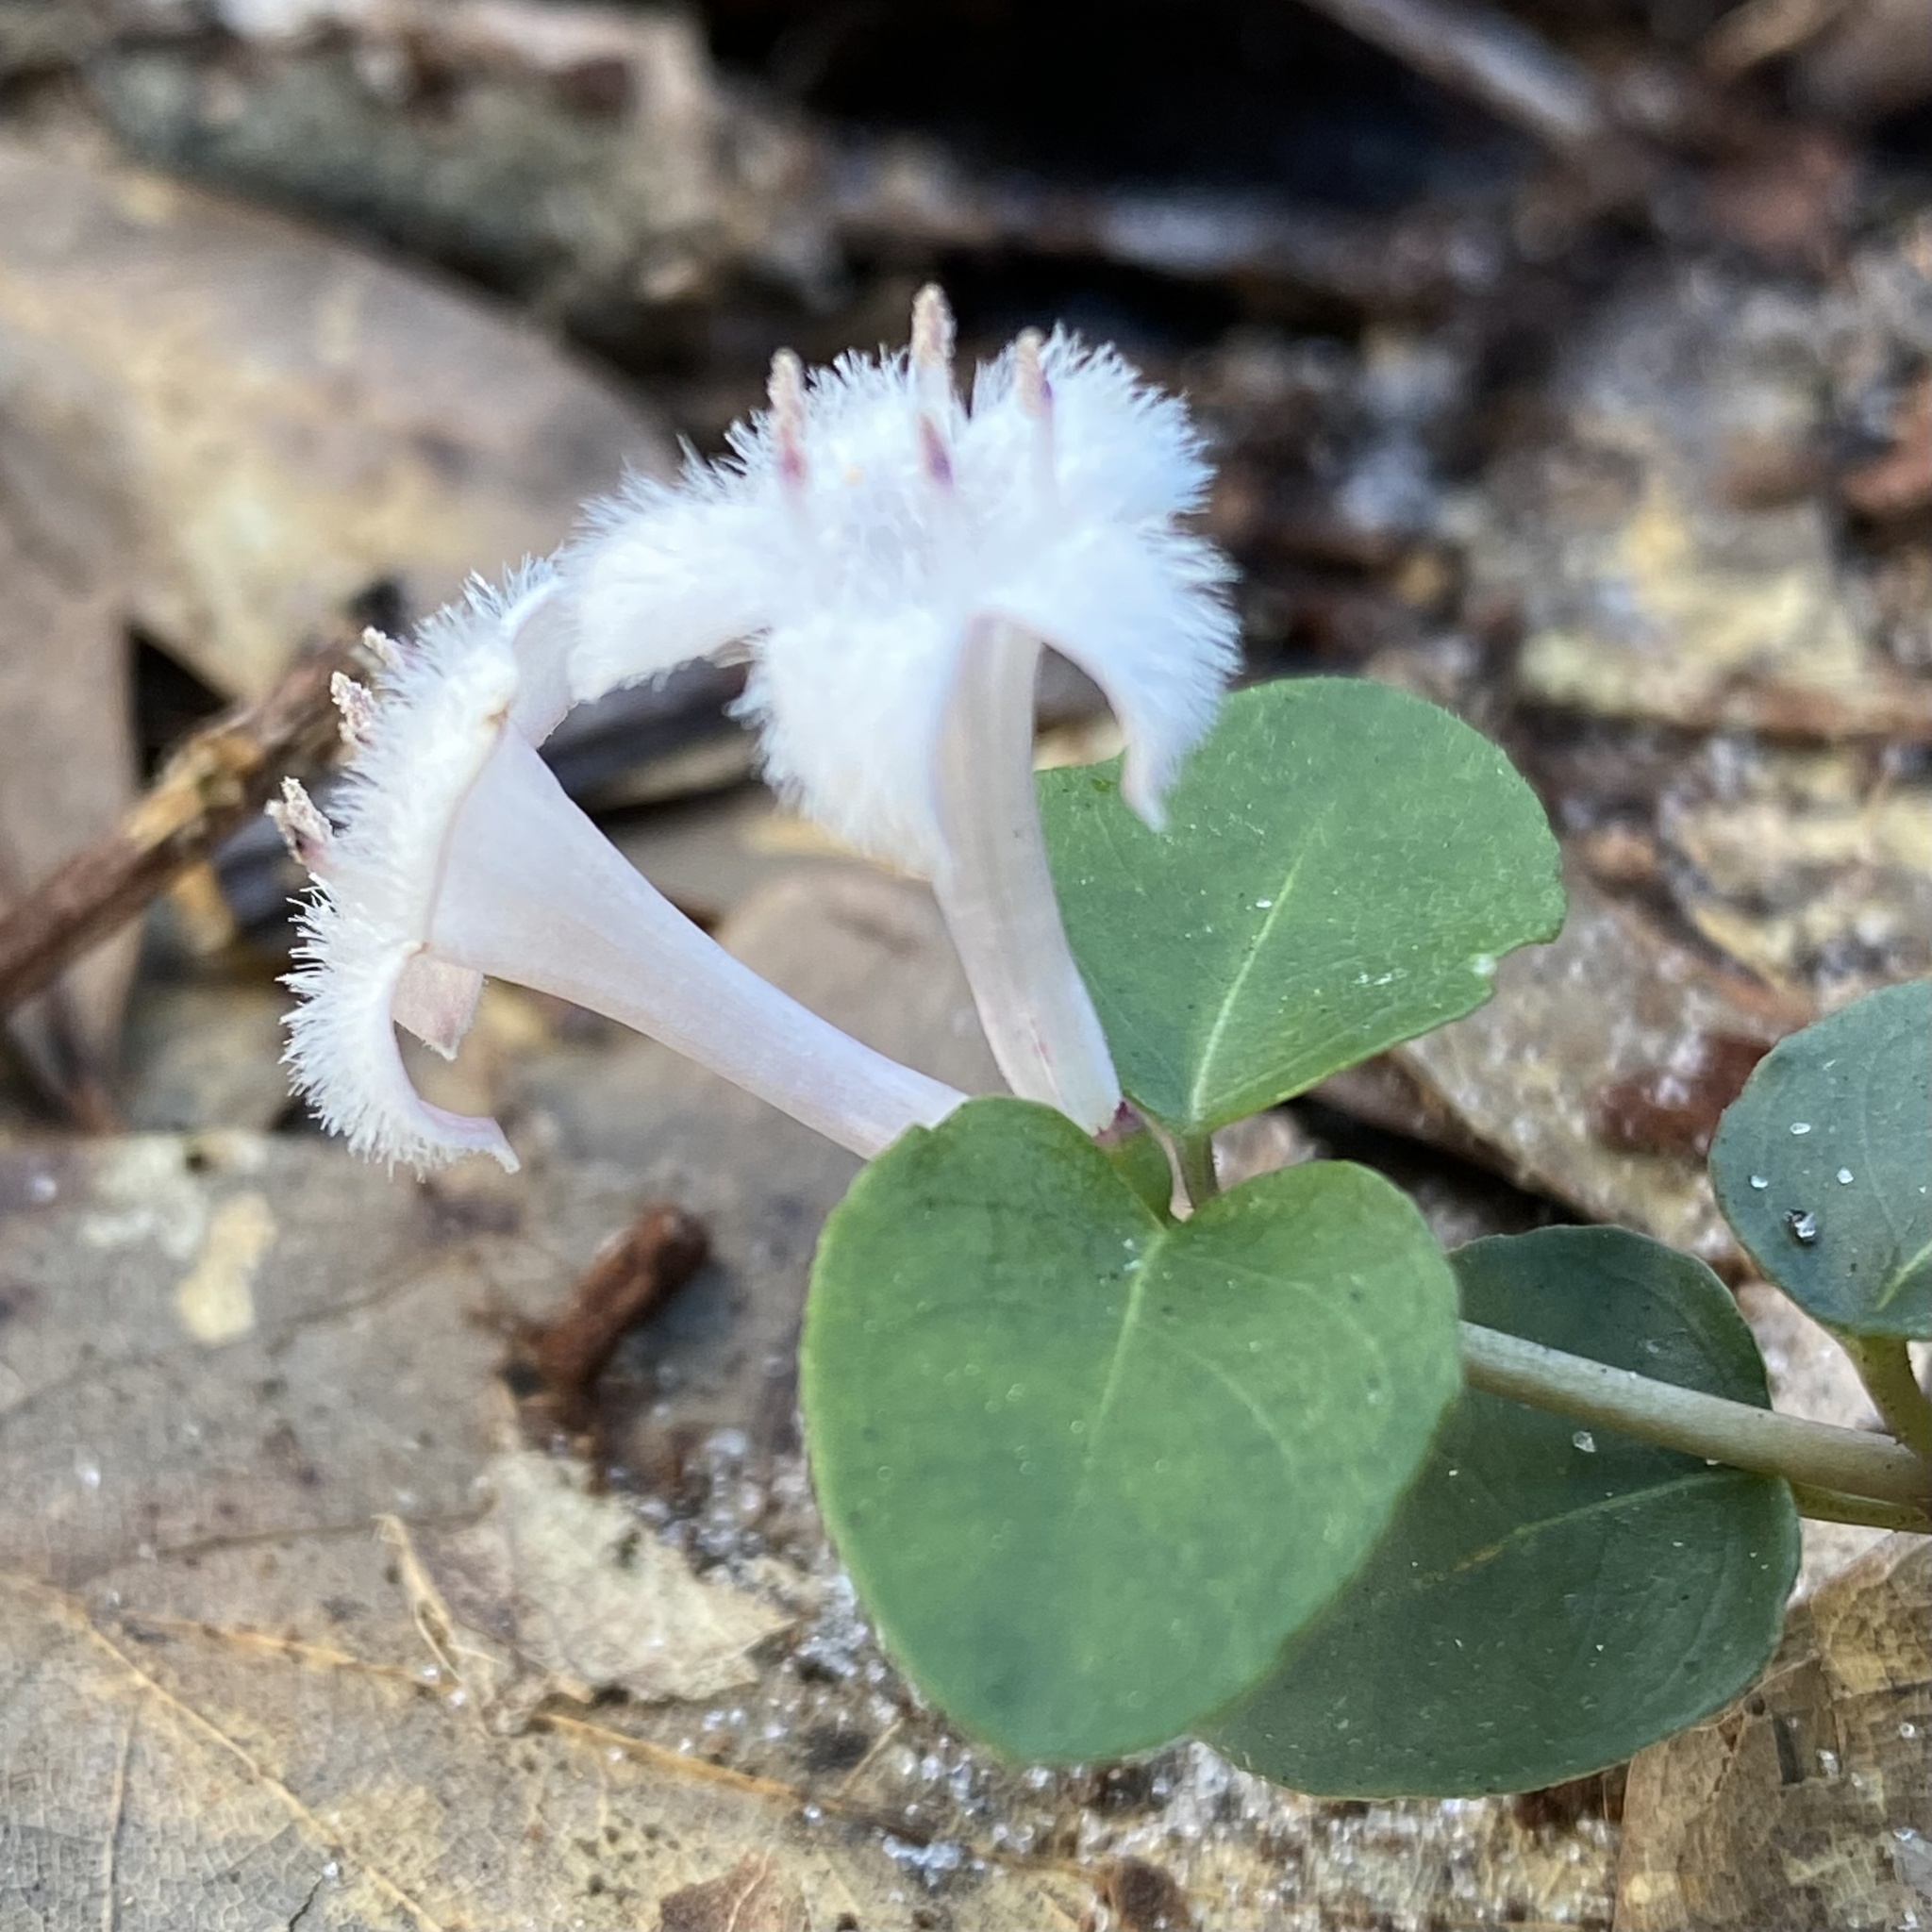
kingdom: Plantae
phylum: Tracheophyta
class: Magnoliopsida
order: Gentianales
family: Rubiaceae
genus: Mitchella
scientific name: Mitchella repens
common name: Partridge-berry
